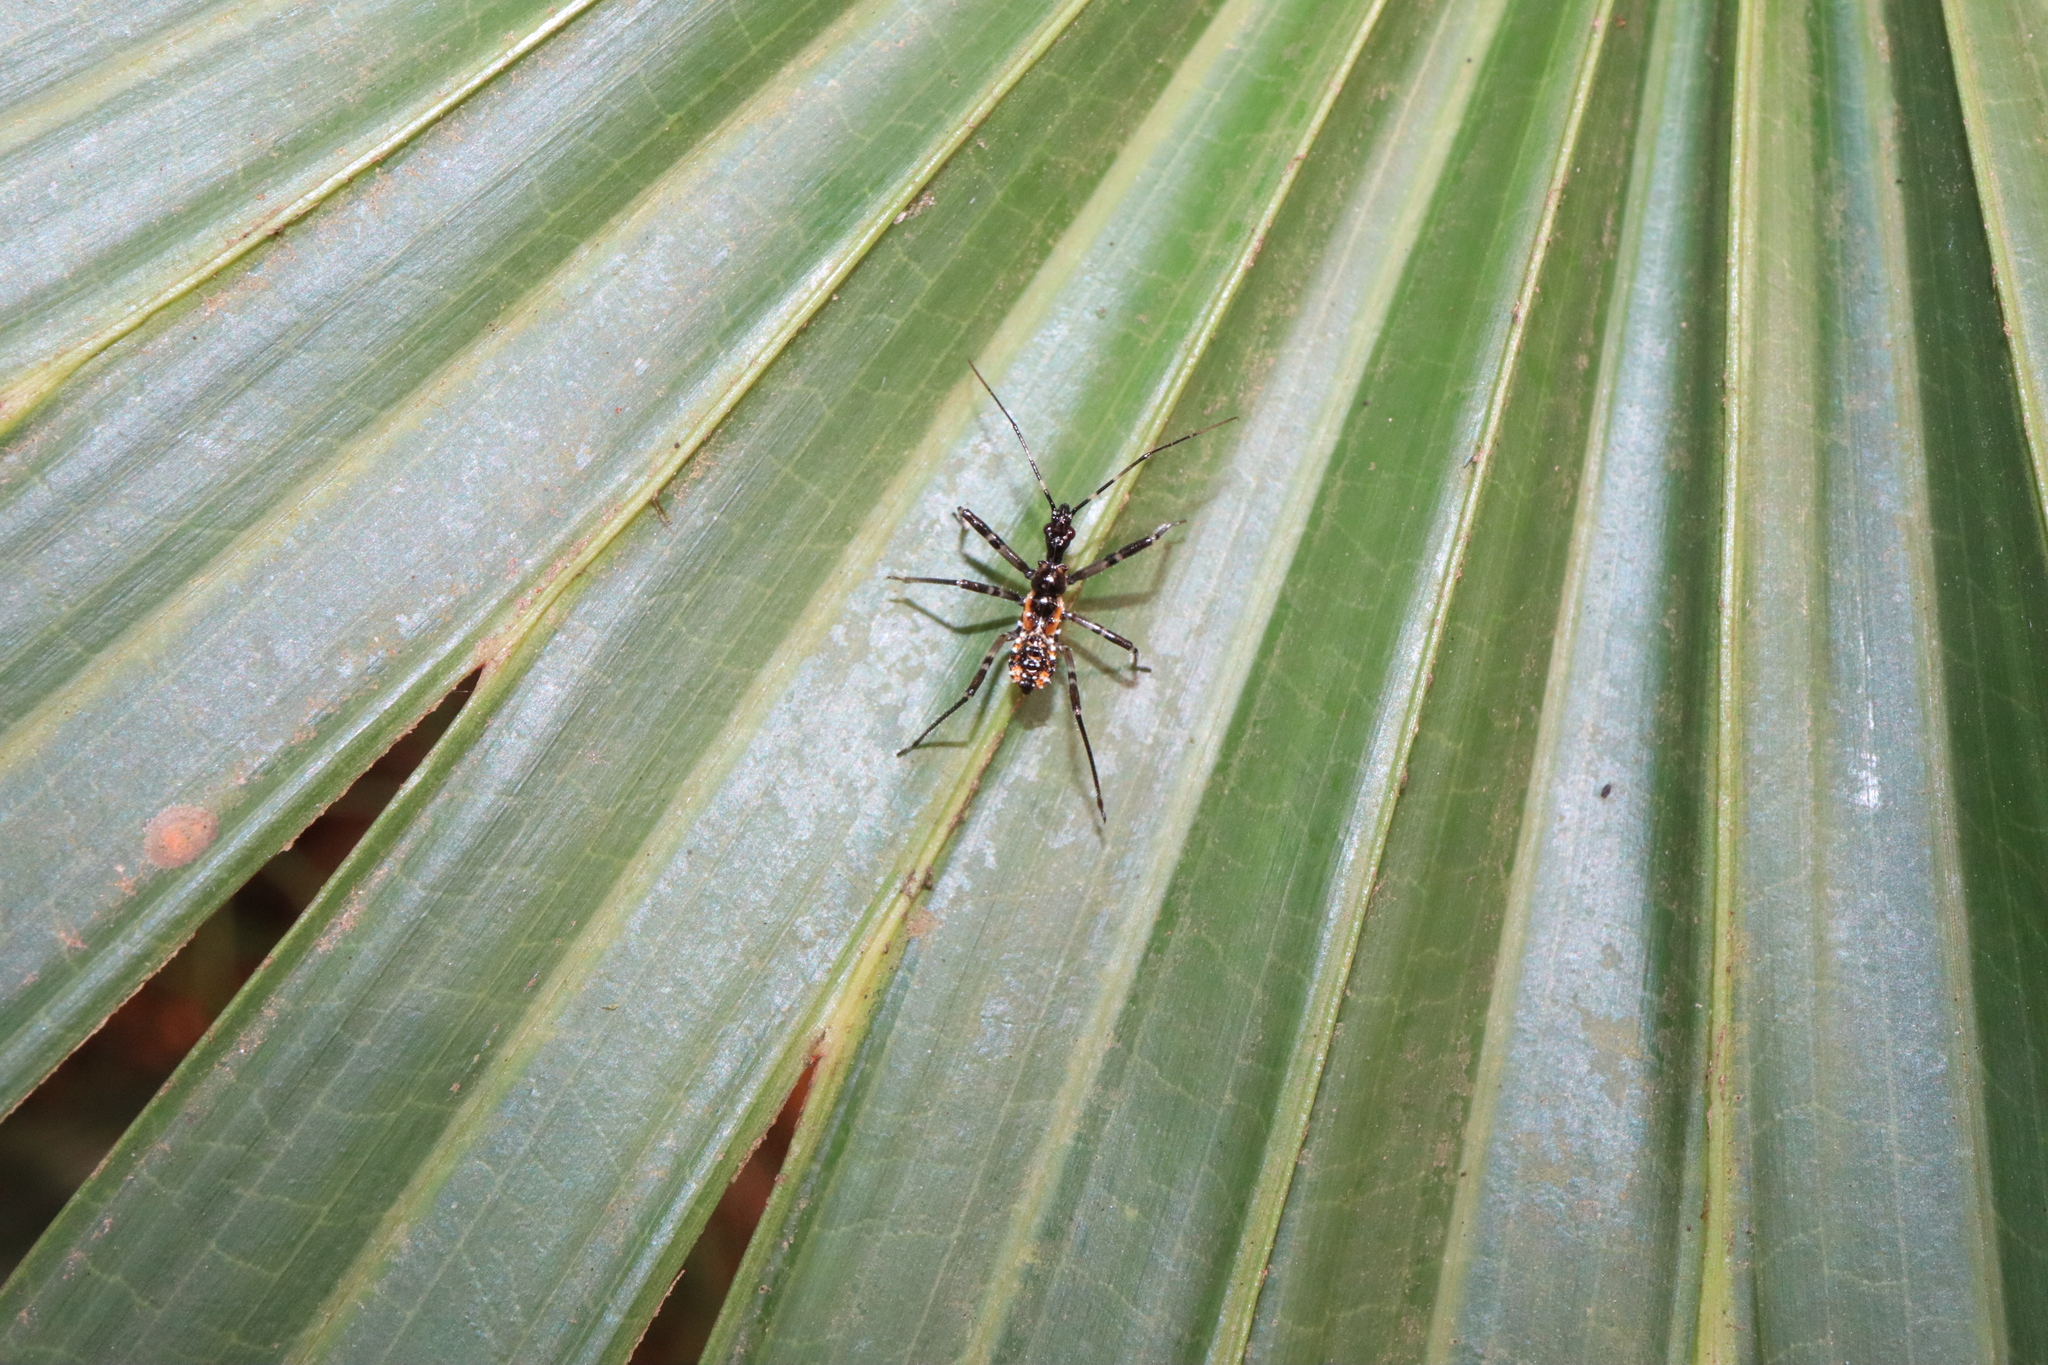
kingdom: Animalia
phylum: Arthropoda
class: Insecta
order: Hemiptera
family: Reduviidae
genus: Pristhesancus
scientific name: Pristhesancus plagipennis
